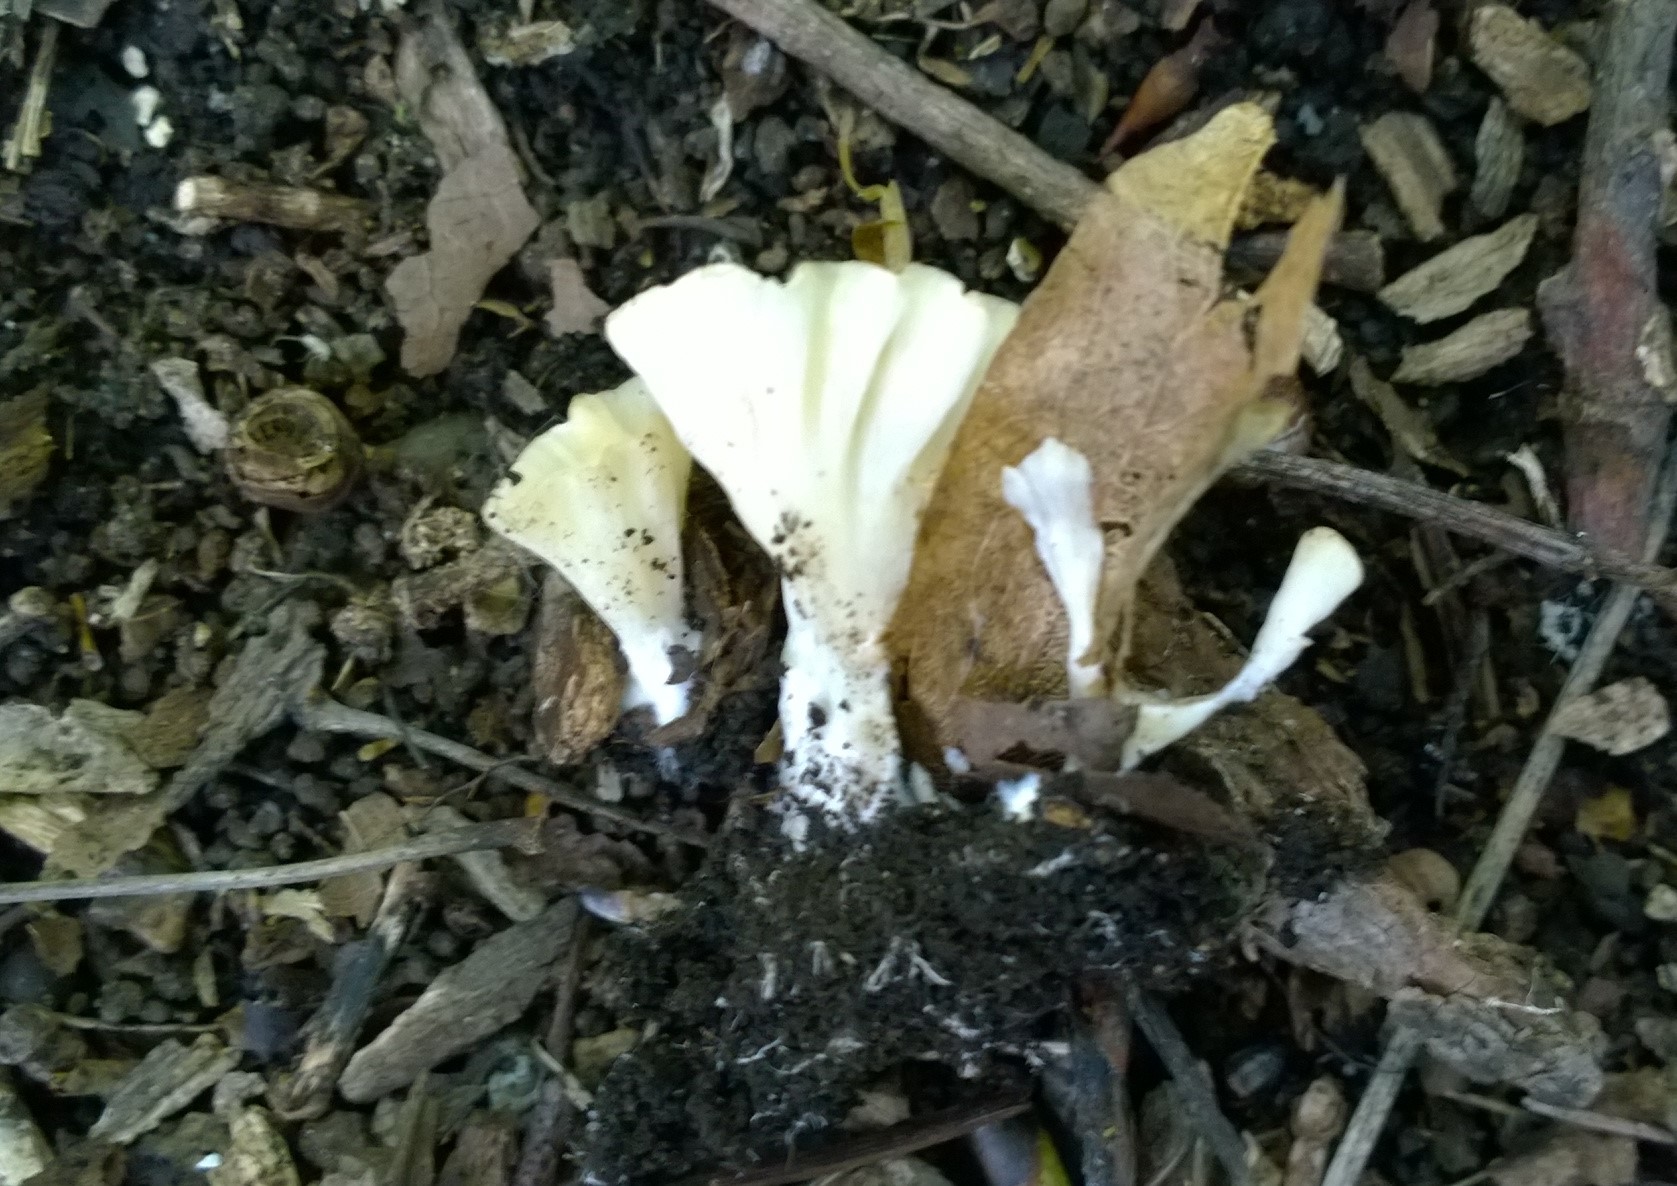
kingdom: Fungi
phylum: Basidiomycota
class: Agaricomycetes
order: Hymenochaetales
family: Rickenellaceae
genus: Cotylidia
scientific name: Cotylidia diaphana
